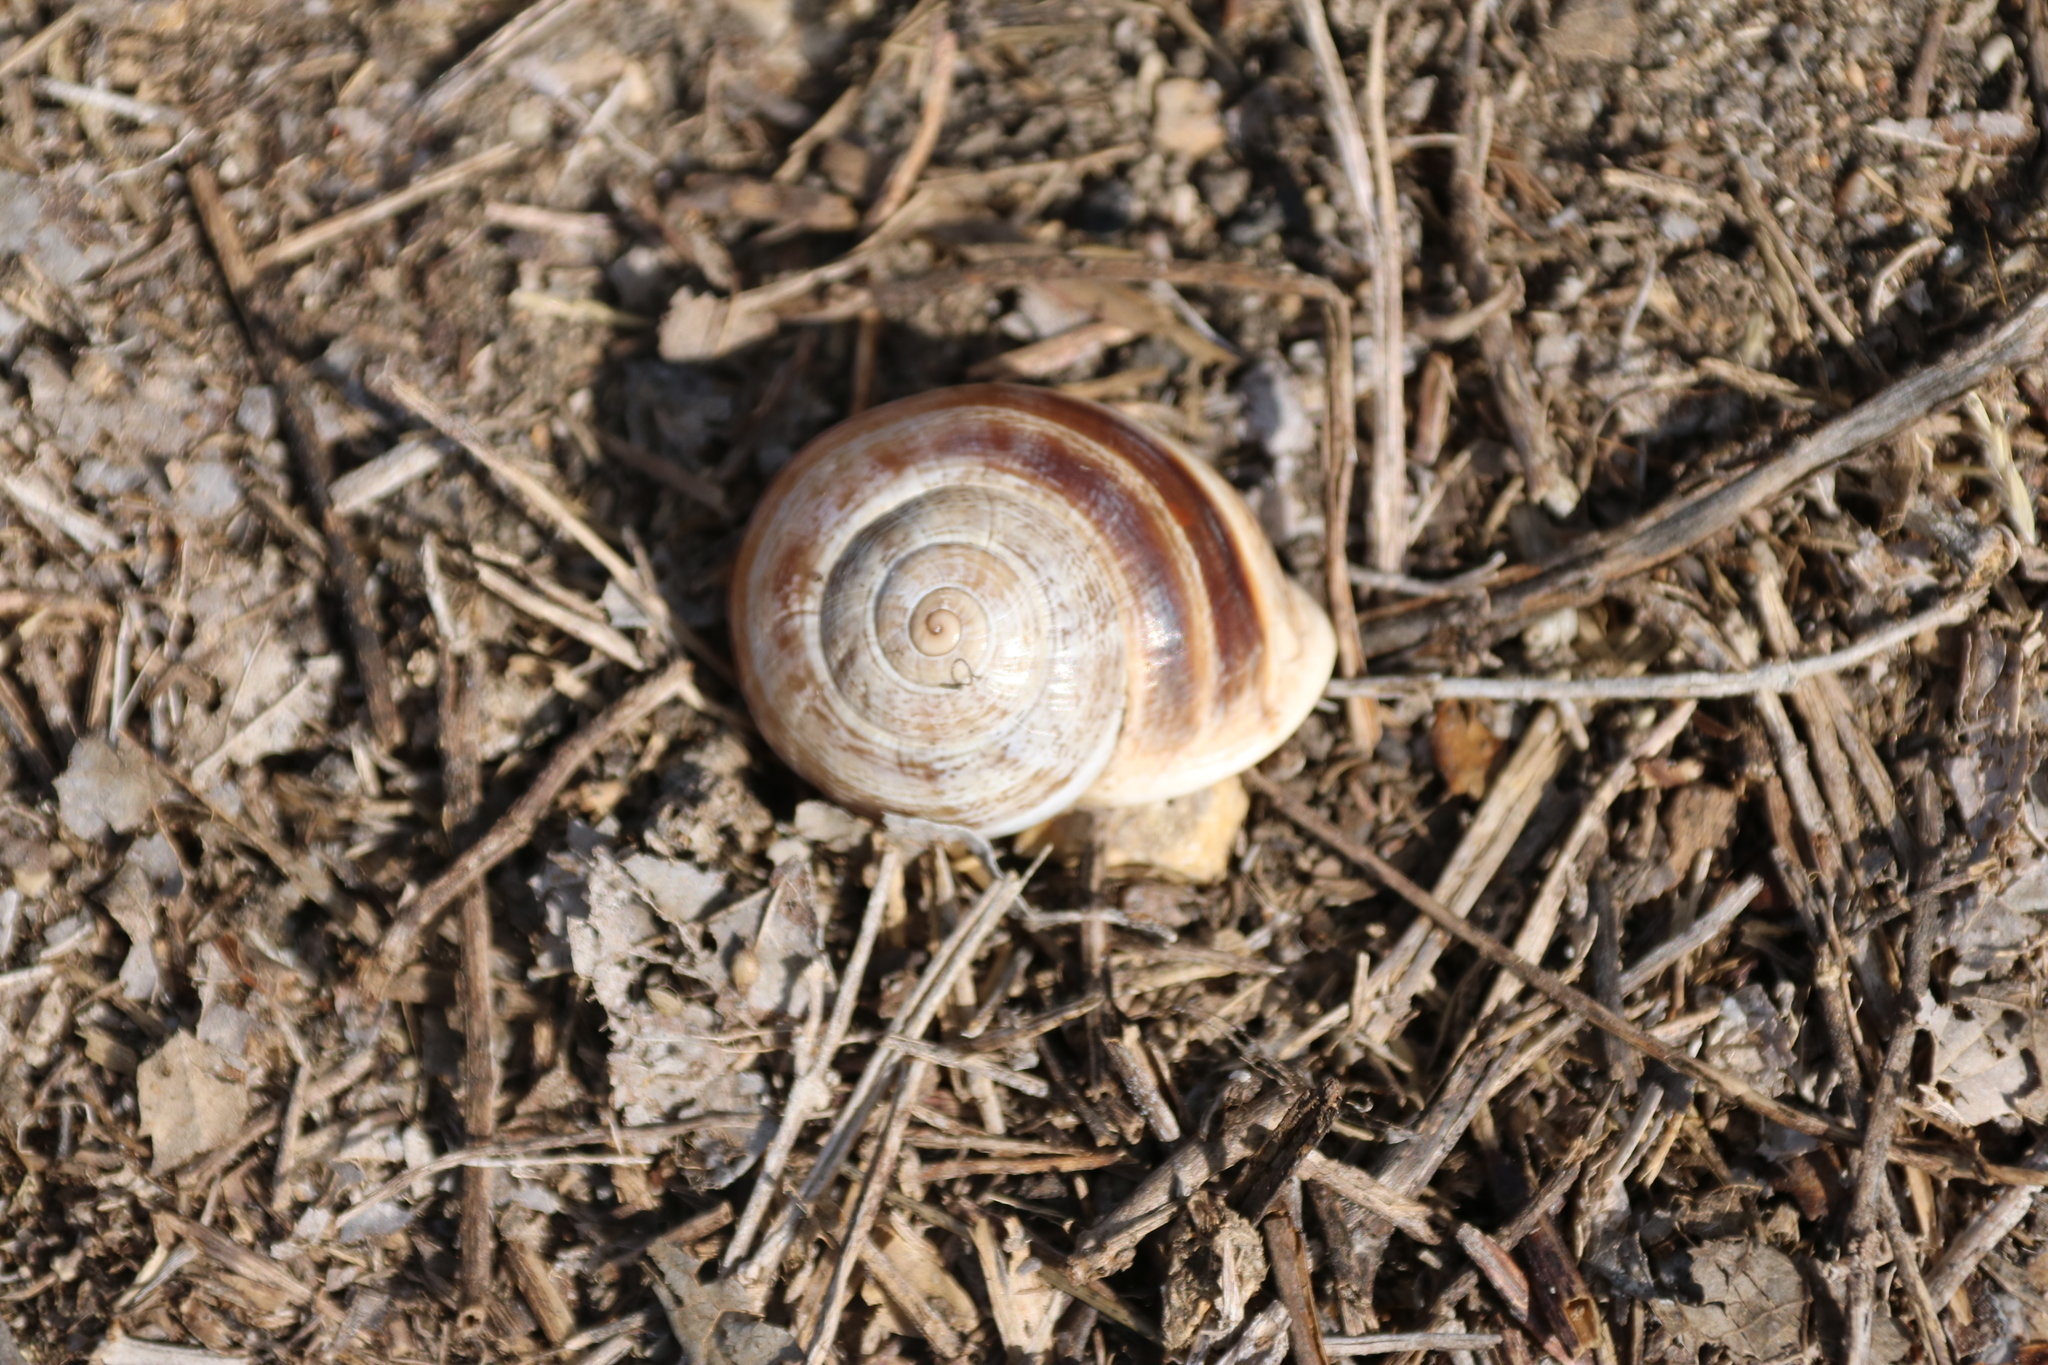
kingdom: Animalia
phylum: Mollusca
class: Gastropoda
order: Stylommatophora
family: Helicidae
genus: Otala
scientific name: Otala lactea
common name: Milk snail
